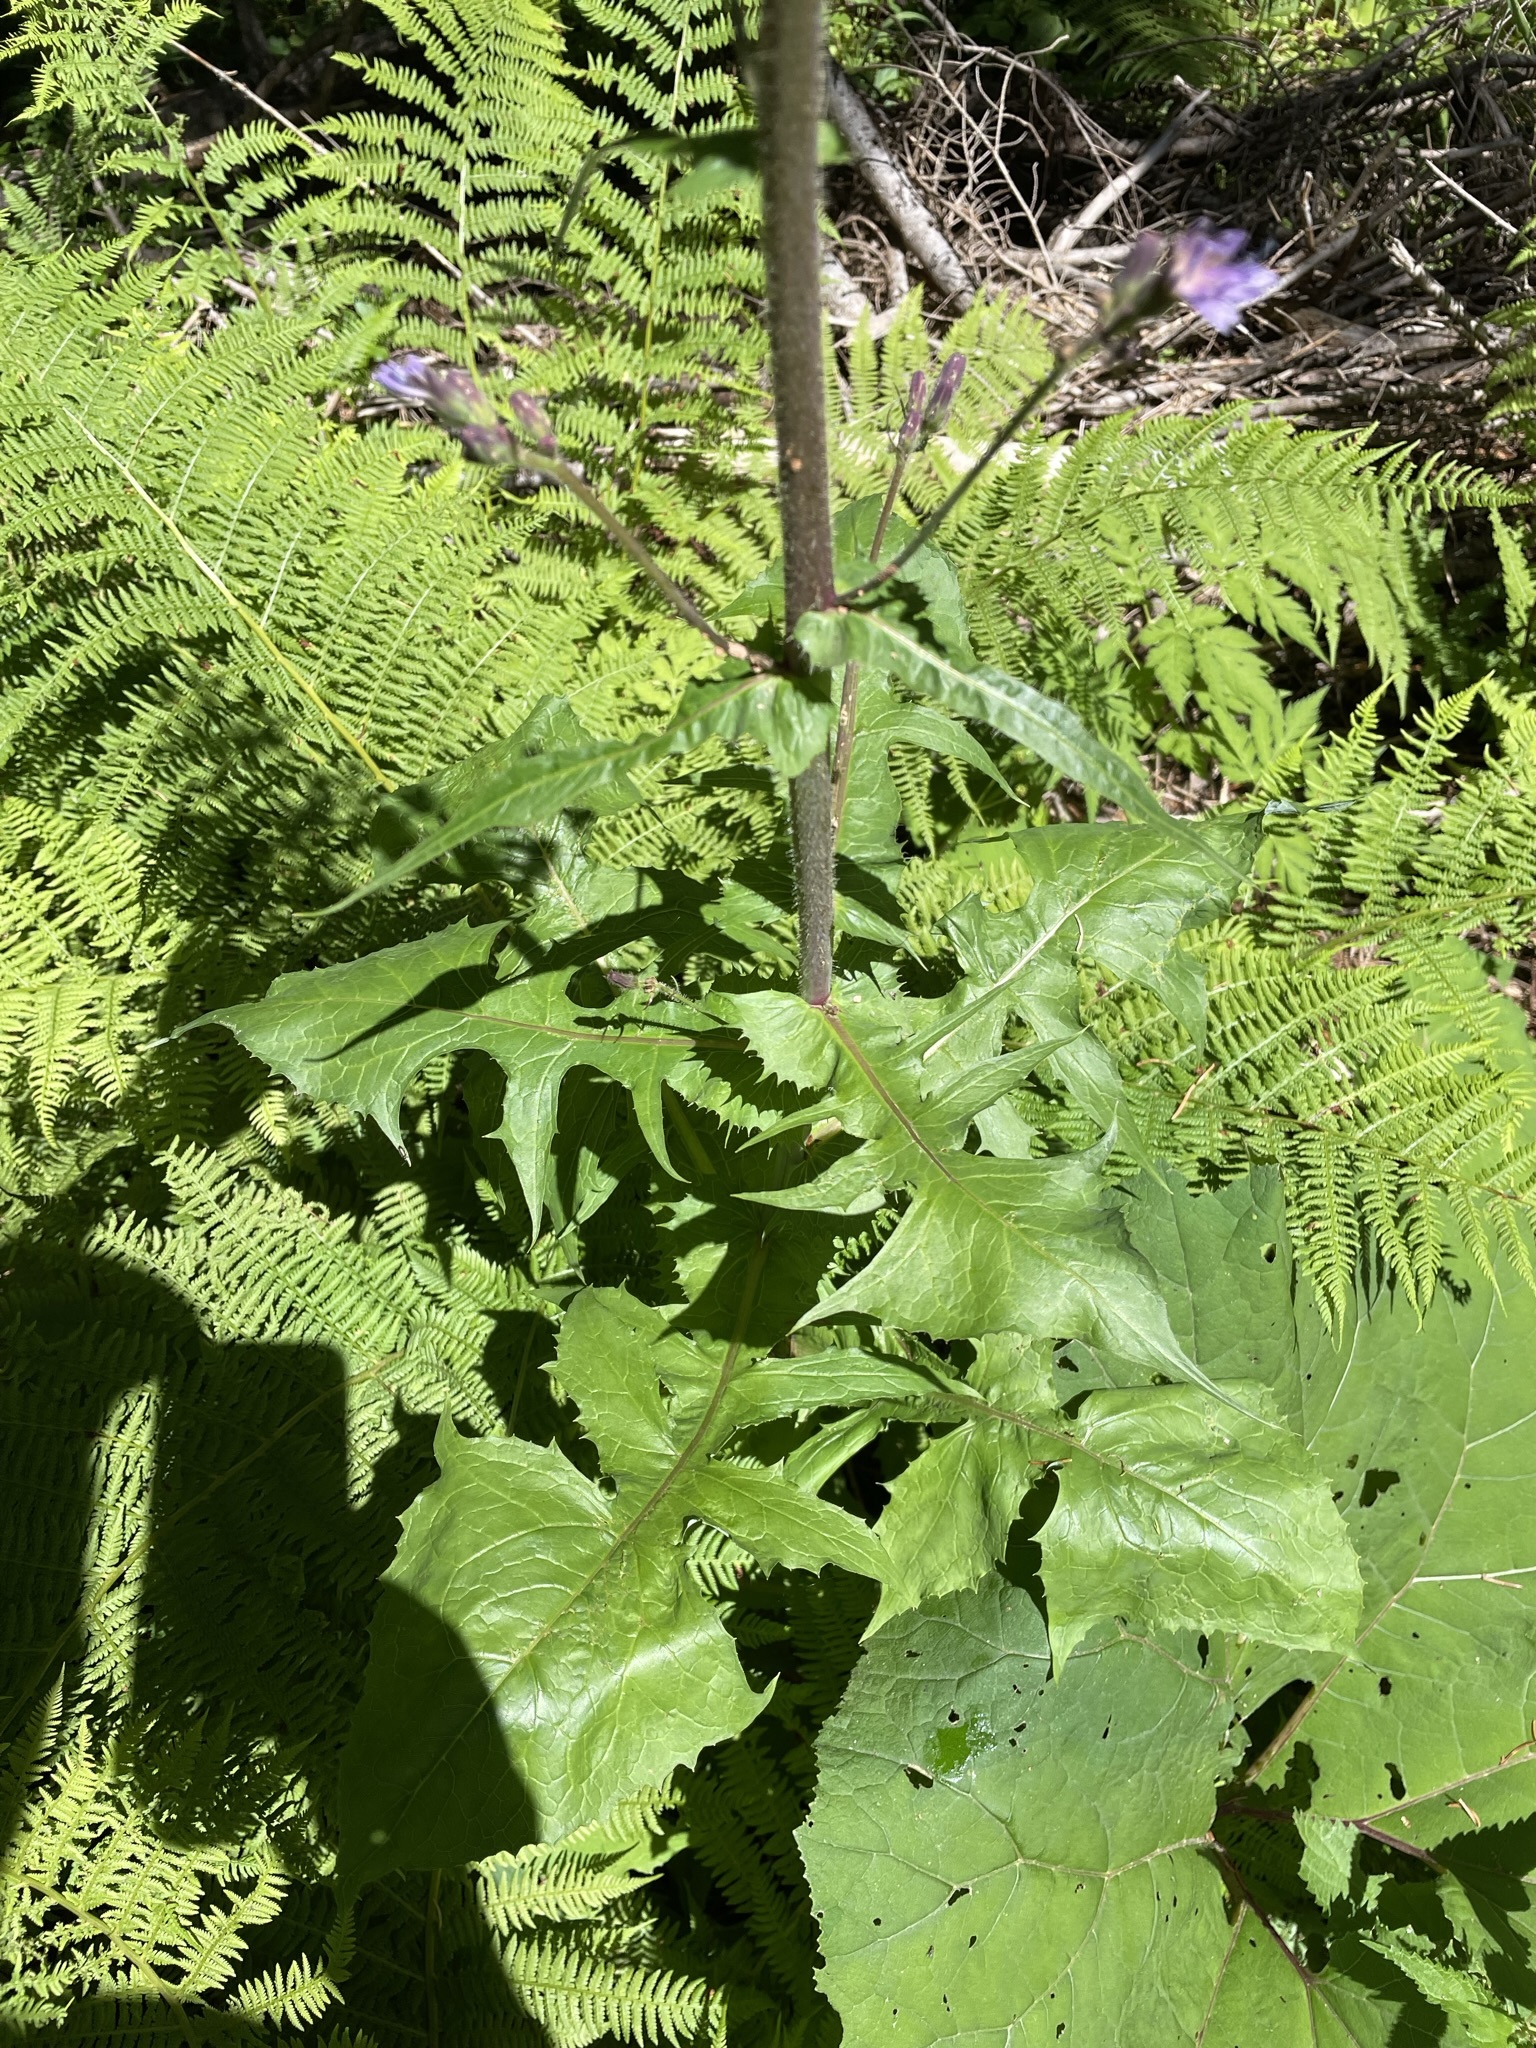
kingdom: Plantae
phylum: Tracheophyta
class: Magnoliopsida
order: Asterales
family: Asteraceae
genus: Cicerbita
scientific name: Cicerbita alpina
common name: Alpine blue-sow-thistle
